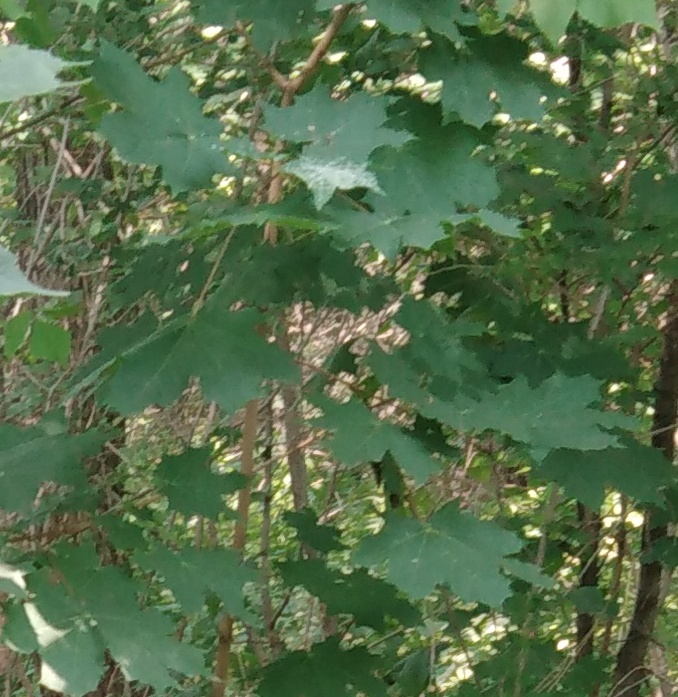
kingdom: Plantae
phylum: Tracheophyta
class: Magnoliopsida
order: Sapindales
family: Sapindaceae
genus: Acer
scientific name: Acer platanoides
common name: Norway maple
